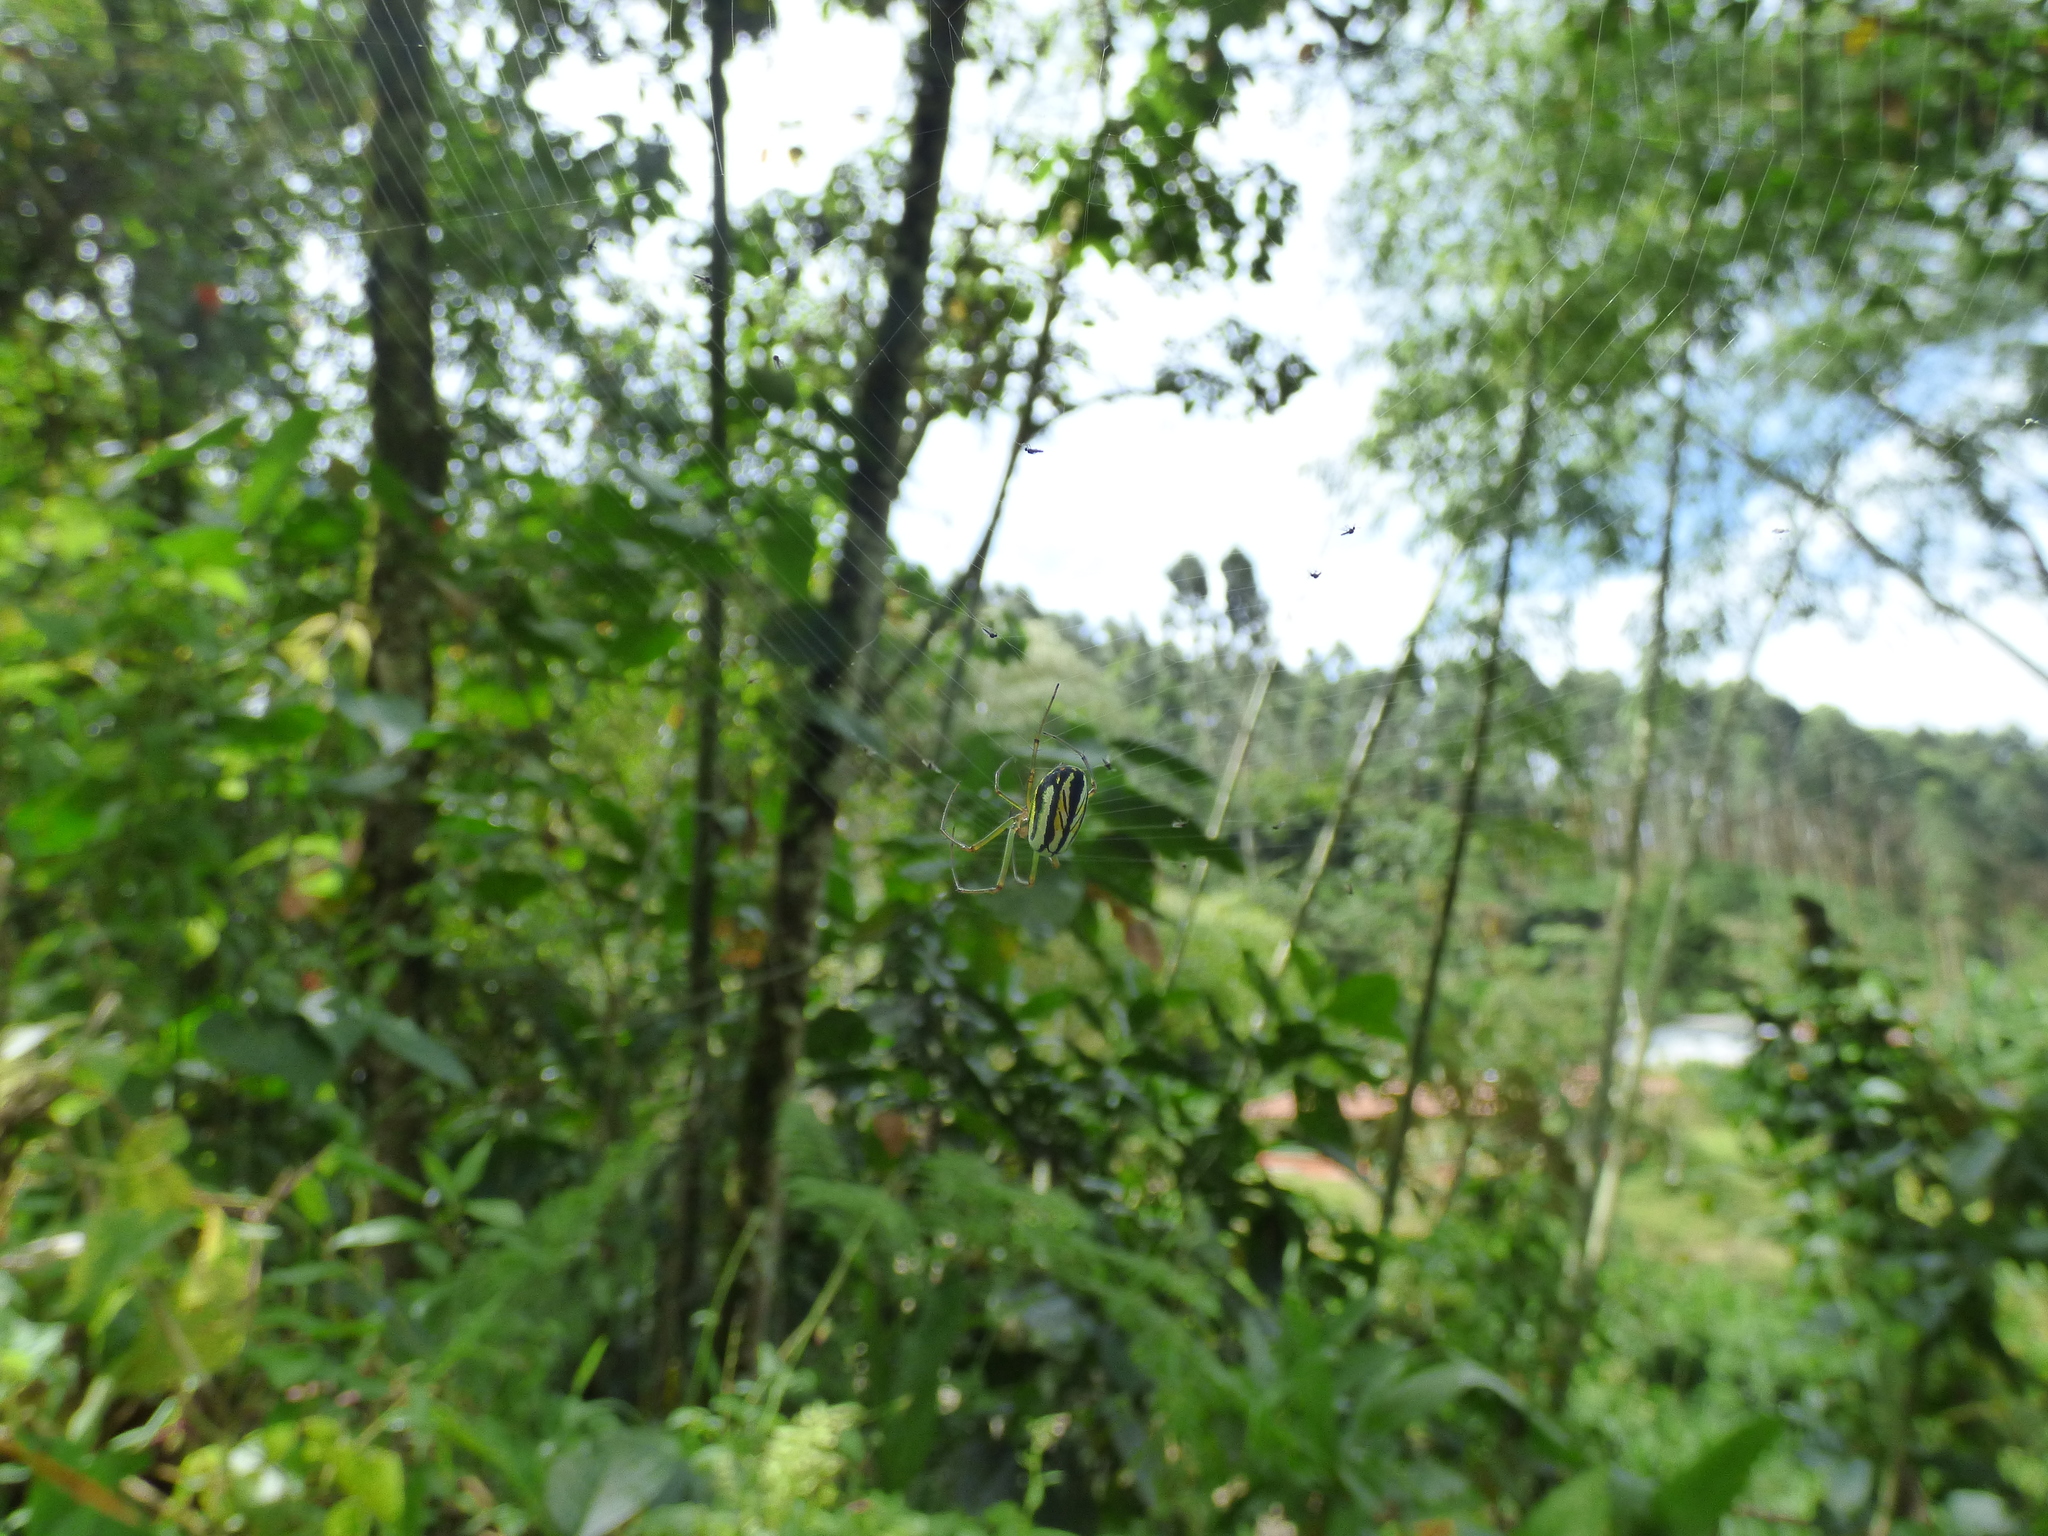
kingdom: Animalia
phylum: Arthropoda
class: Arachnida
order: Araneae
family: Tetragnathidae
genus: Leucauge
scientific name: Leucauge argyrobapta
